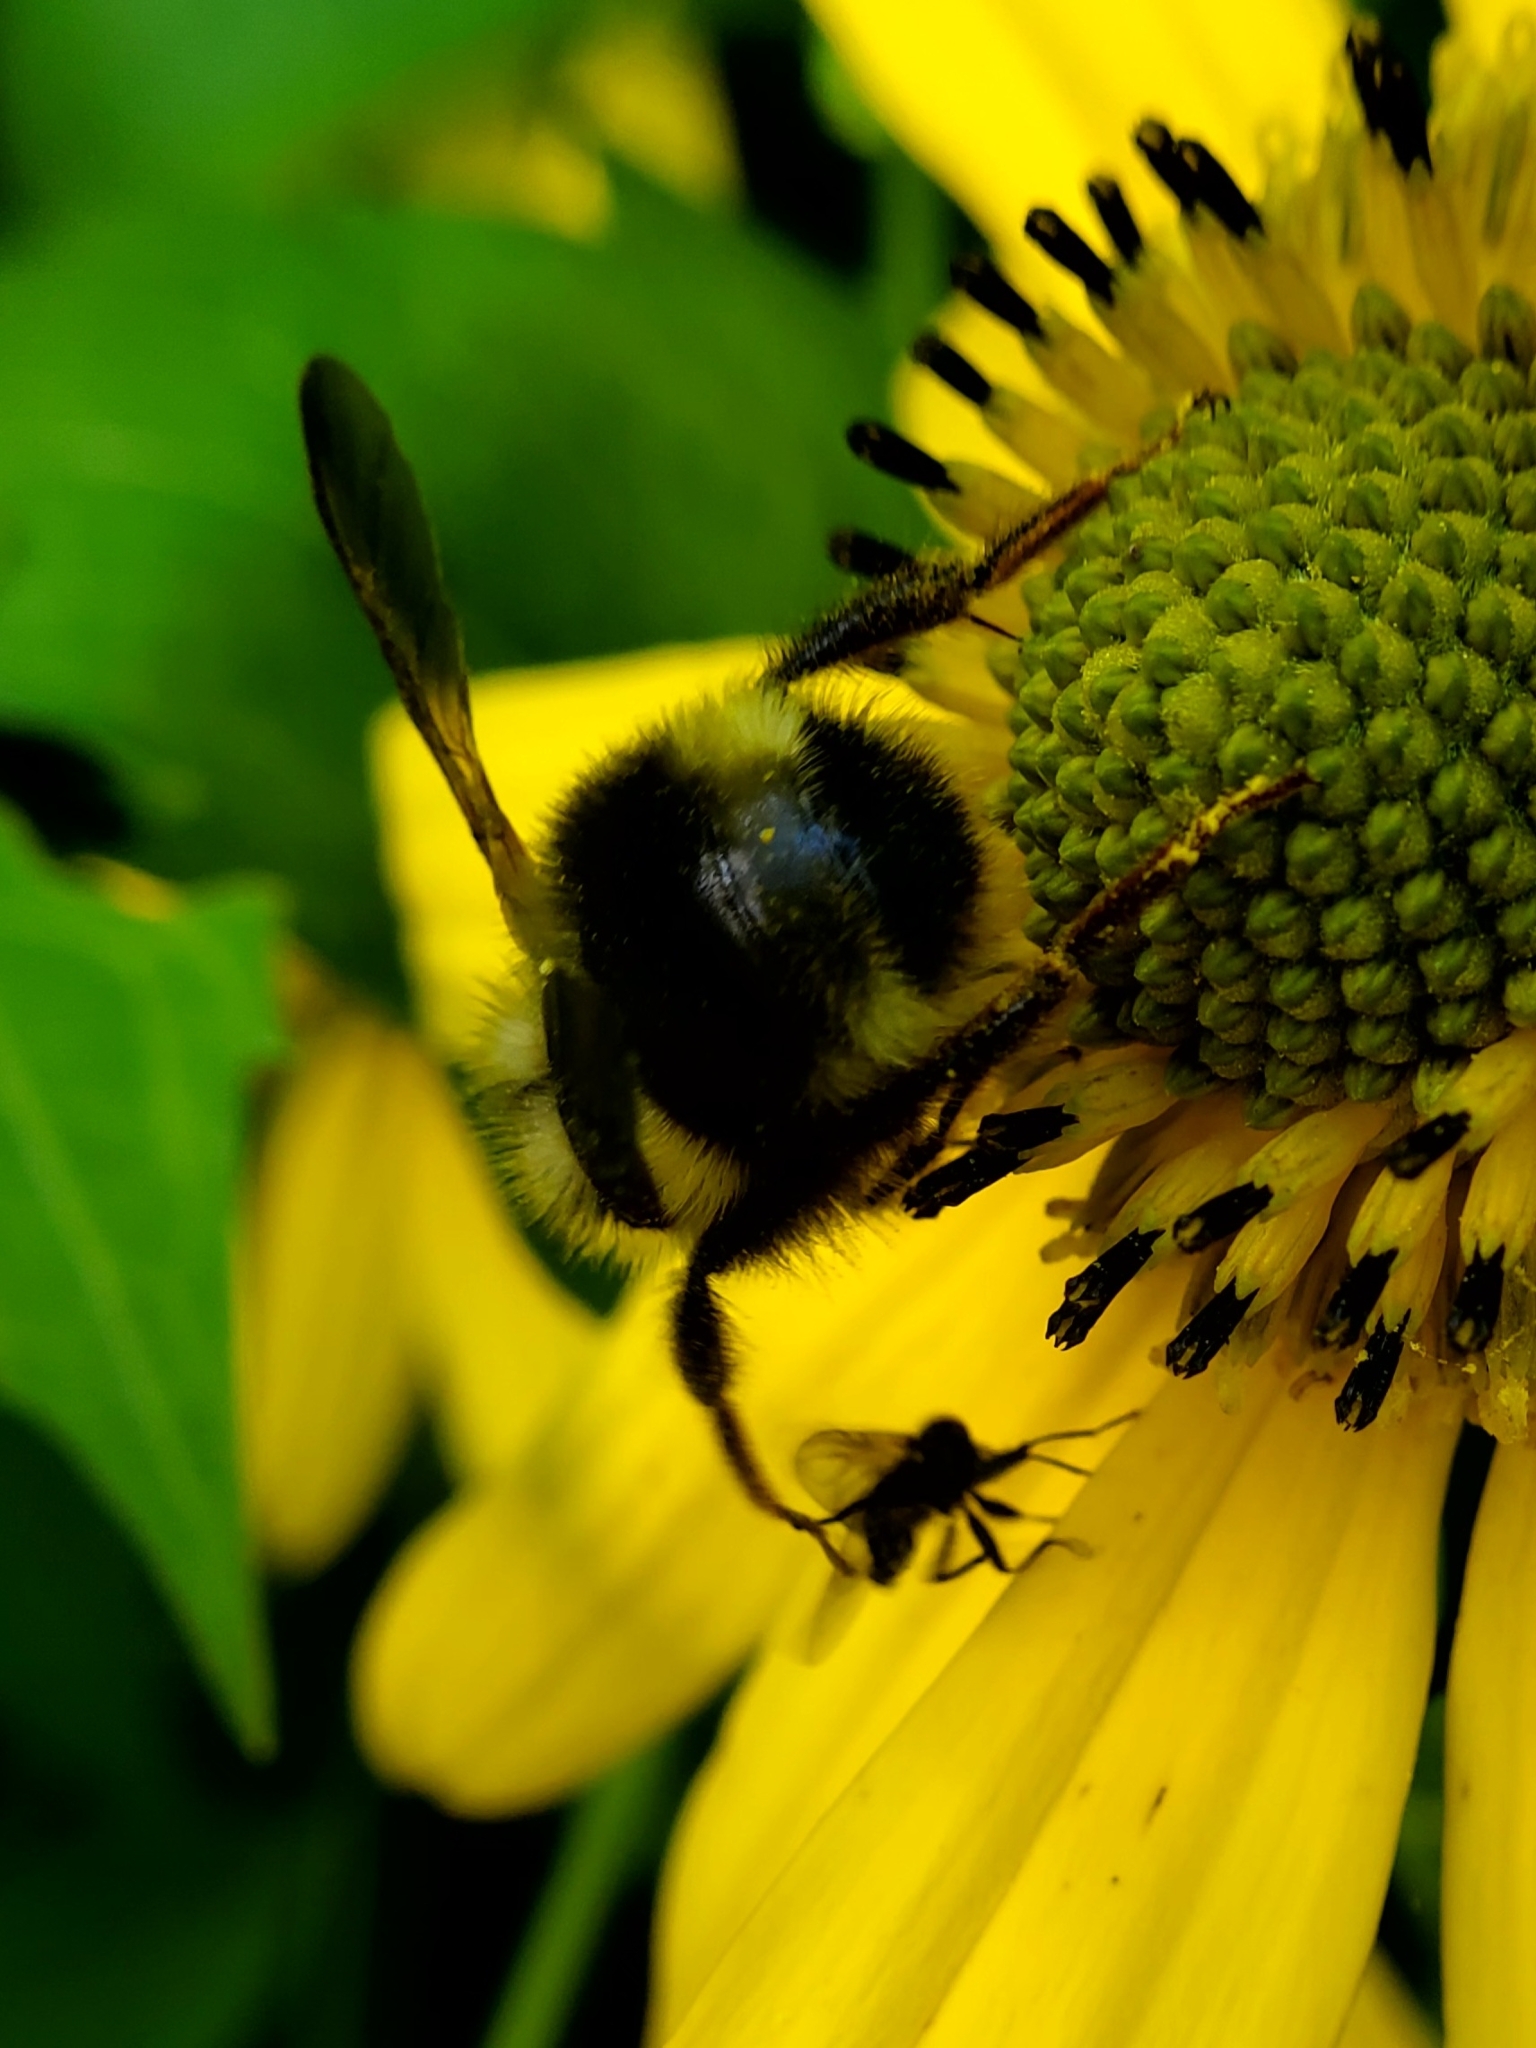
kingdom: Animalia
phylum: Arthropoda
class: Insecta
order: Hymenoptera
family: Apidae
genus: Bombus
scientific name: Bombus flavidus
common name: Fernald cuckoo bumble bee
